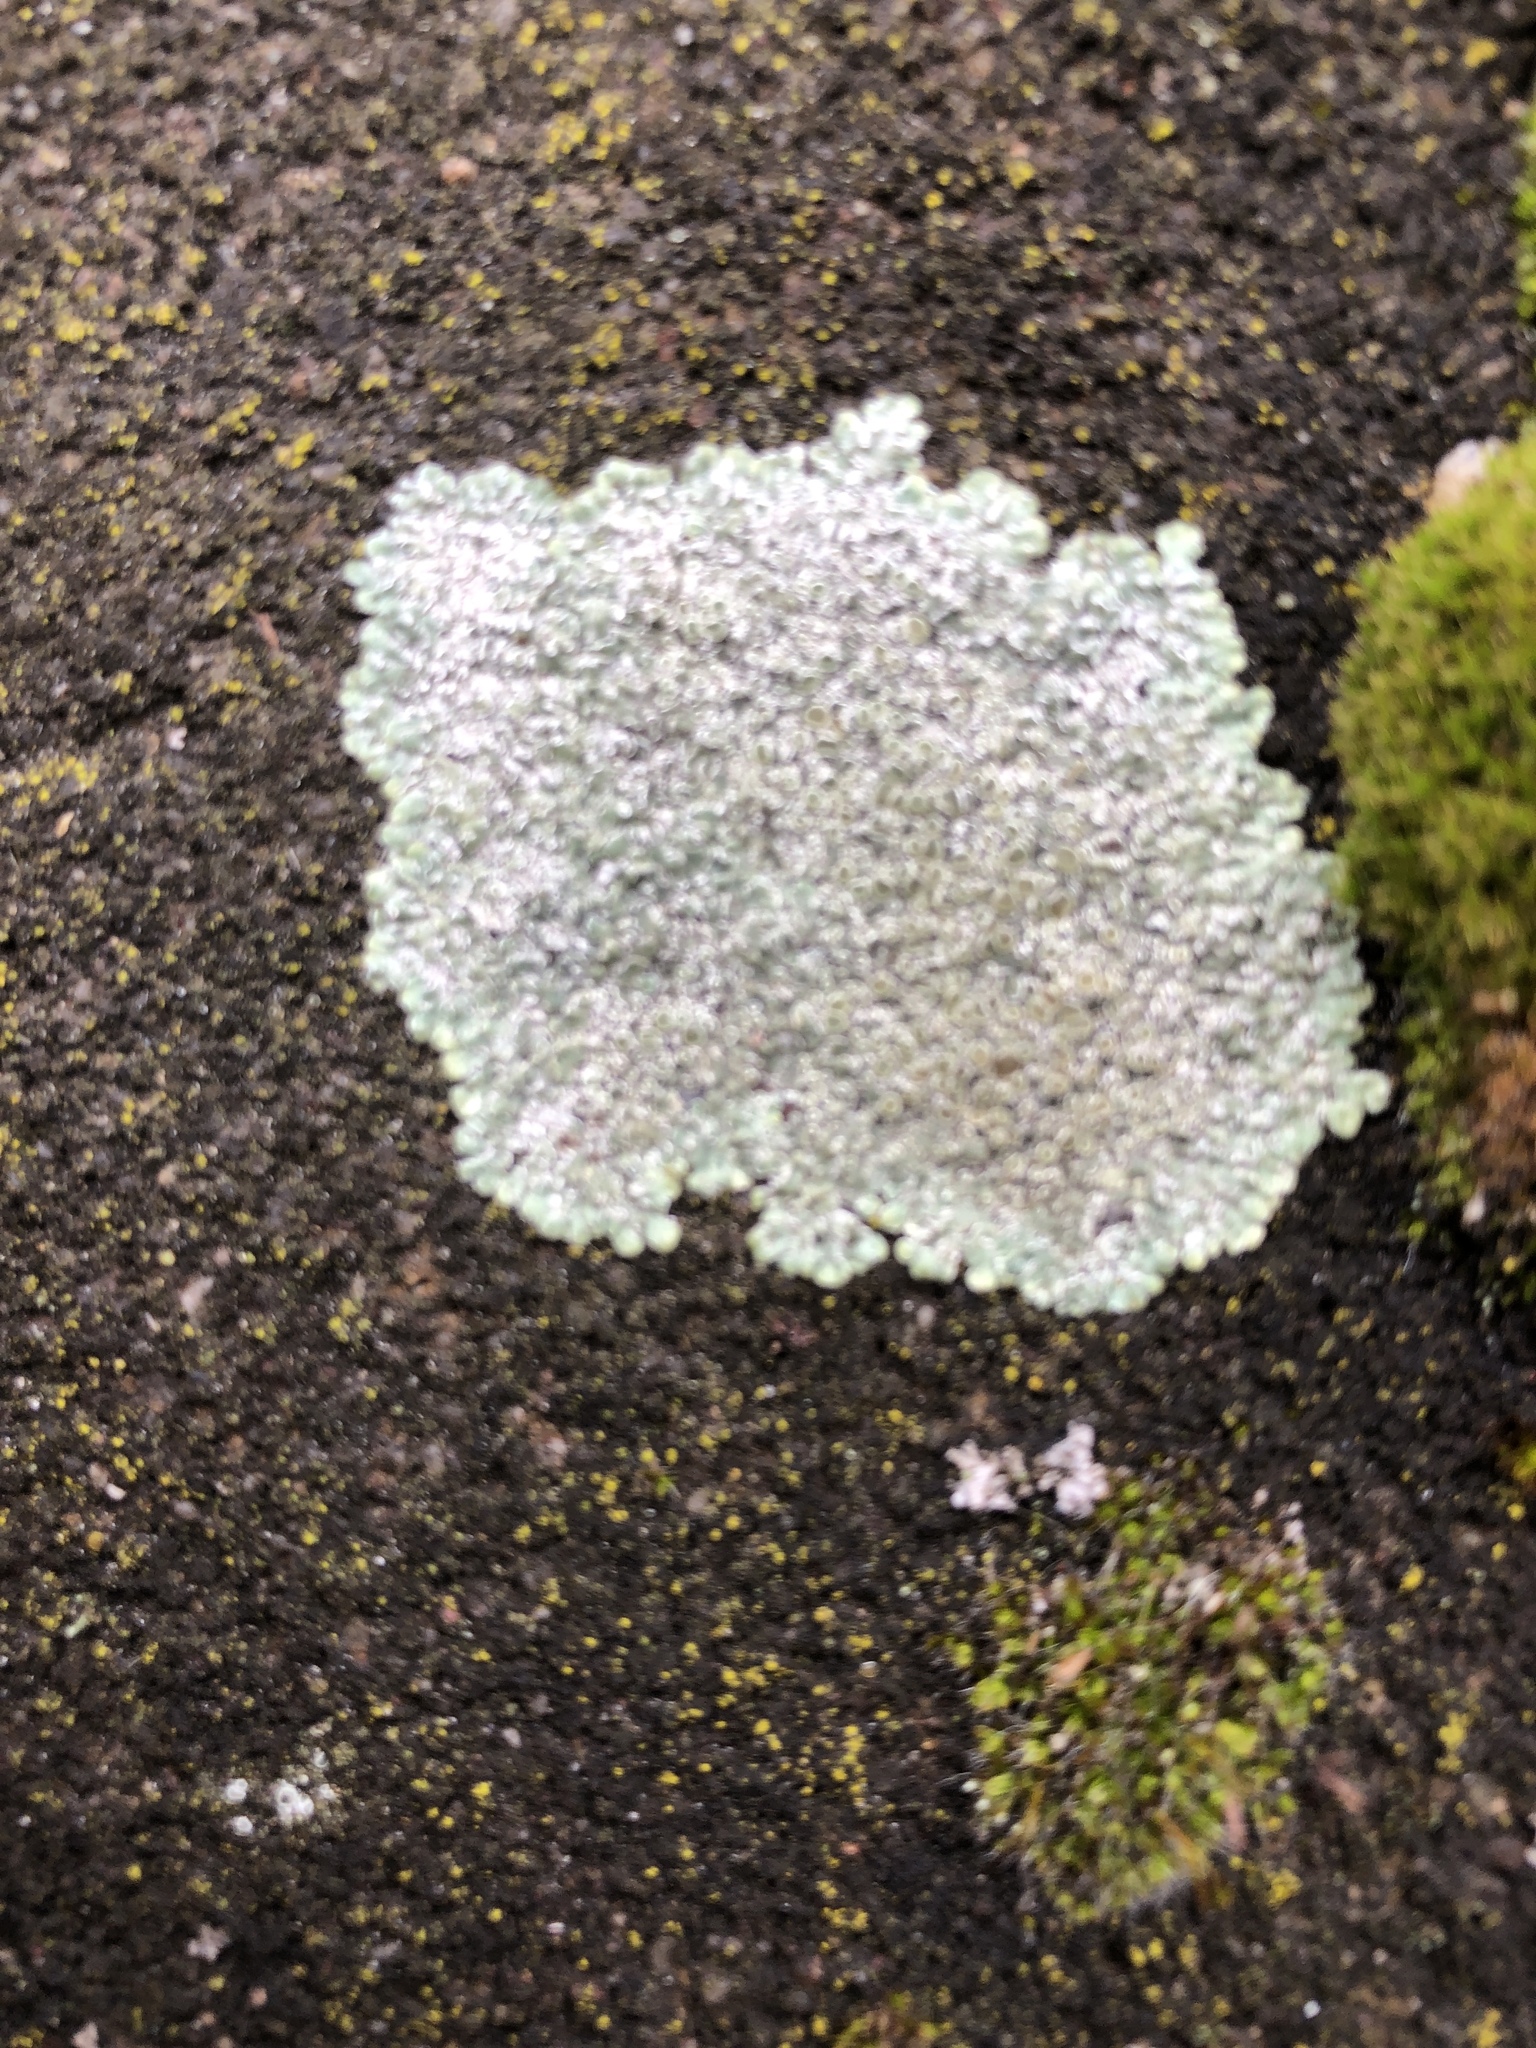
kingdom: Fungi
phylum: Ascomycota
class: Lecanoromycetes
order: Lecanorales
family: Lecanoraceae
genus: Protoparmeliopsis
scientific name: Protoparmeliopsis muralis
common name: Stonewall rim lichen
